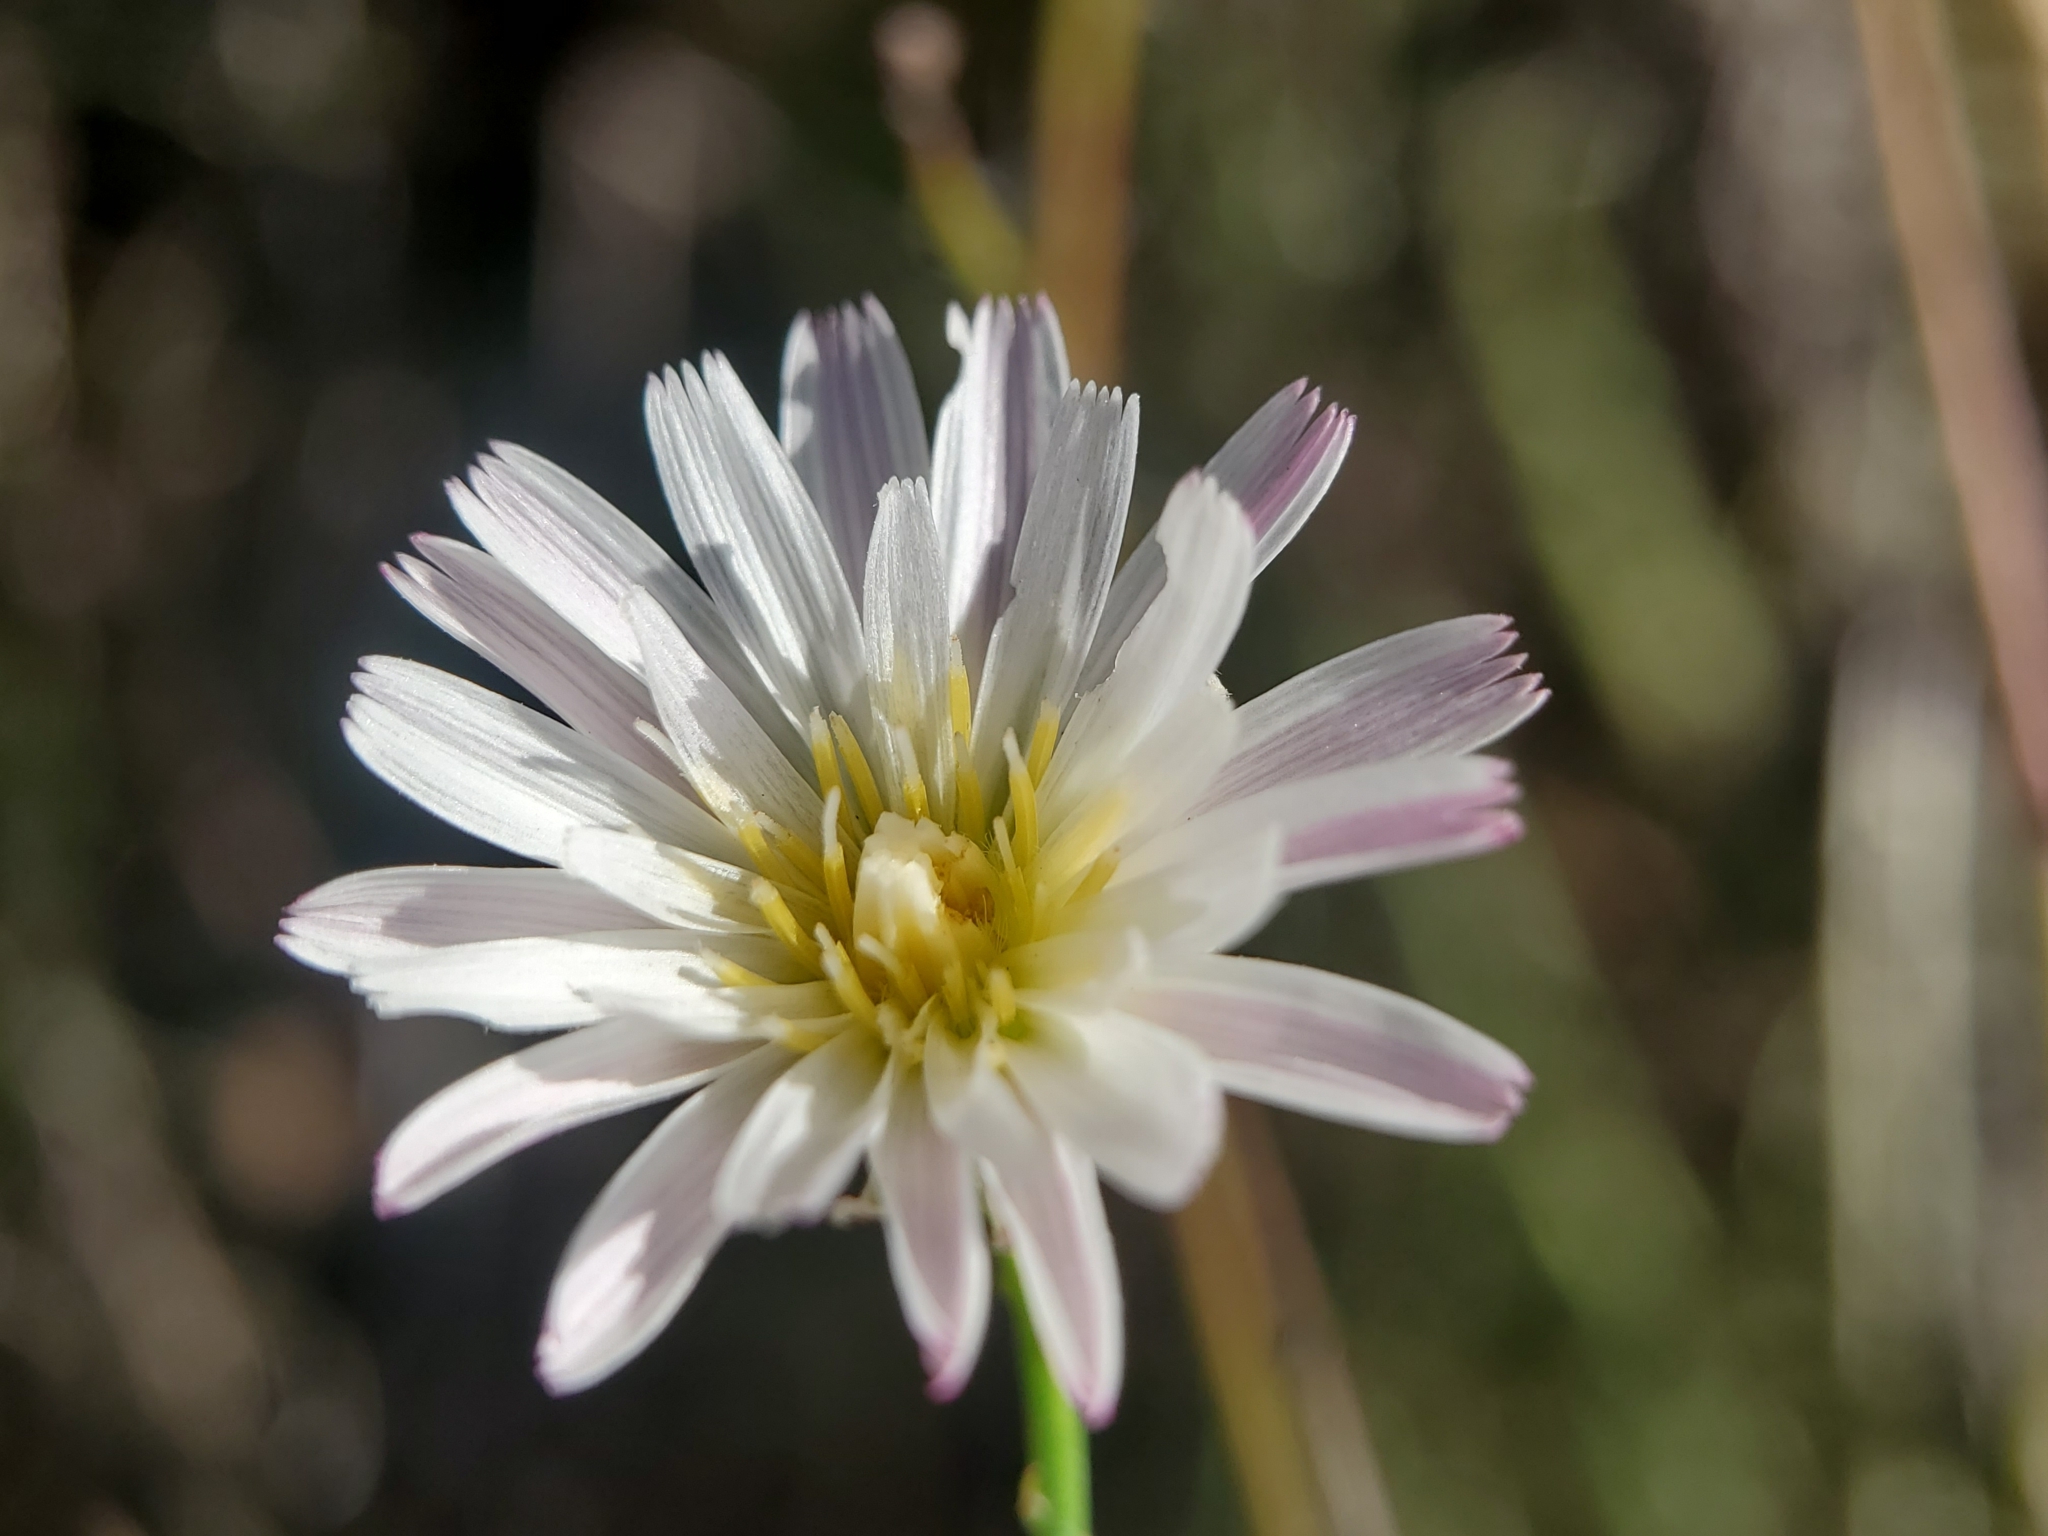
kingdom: Plantae
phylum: Tracheophyta
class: Magnoliopsida
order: Asterales
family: Asteraceae
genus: Malacothrix
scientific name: Malacothrix saxatilis
